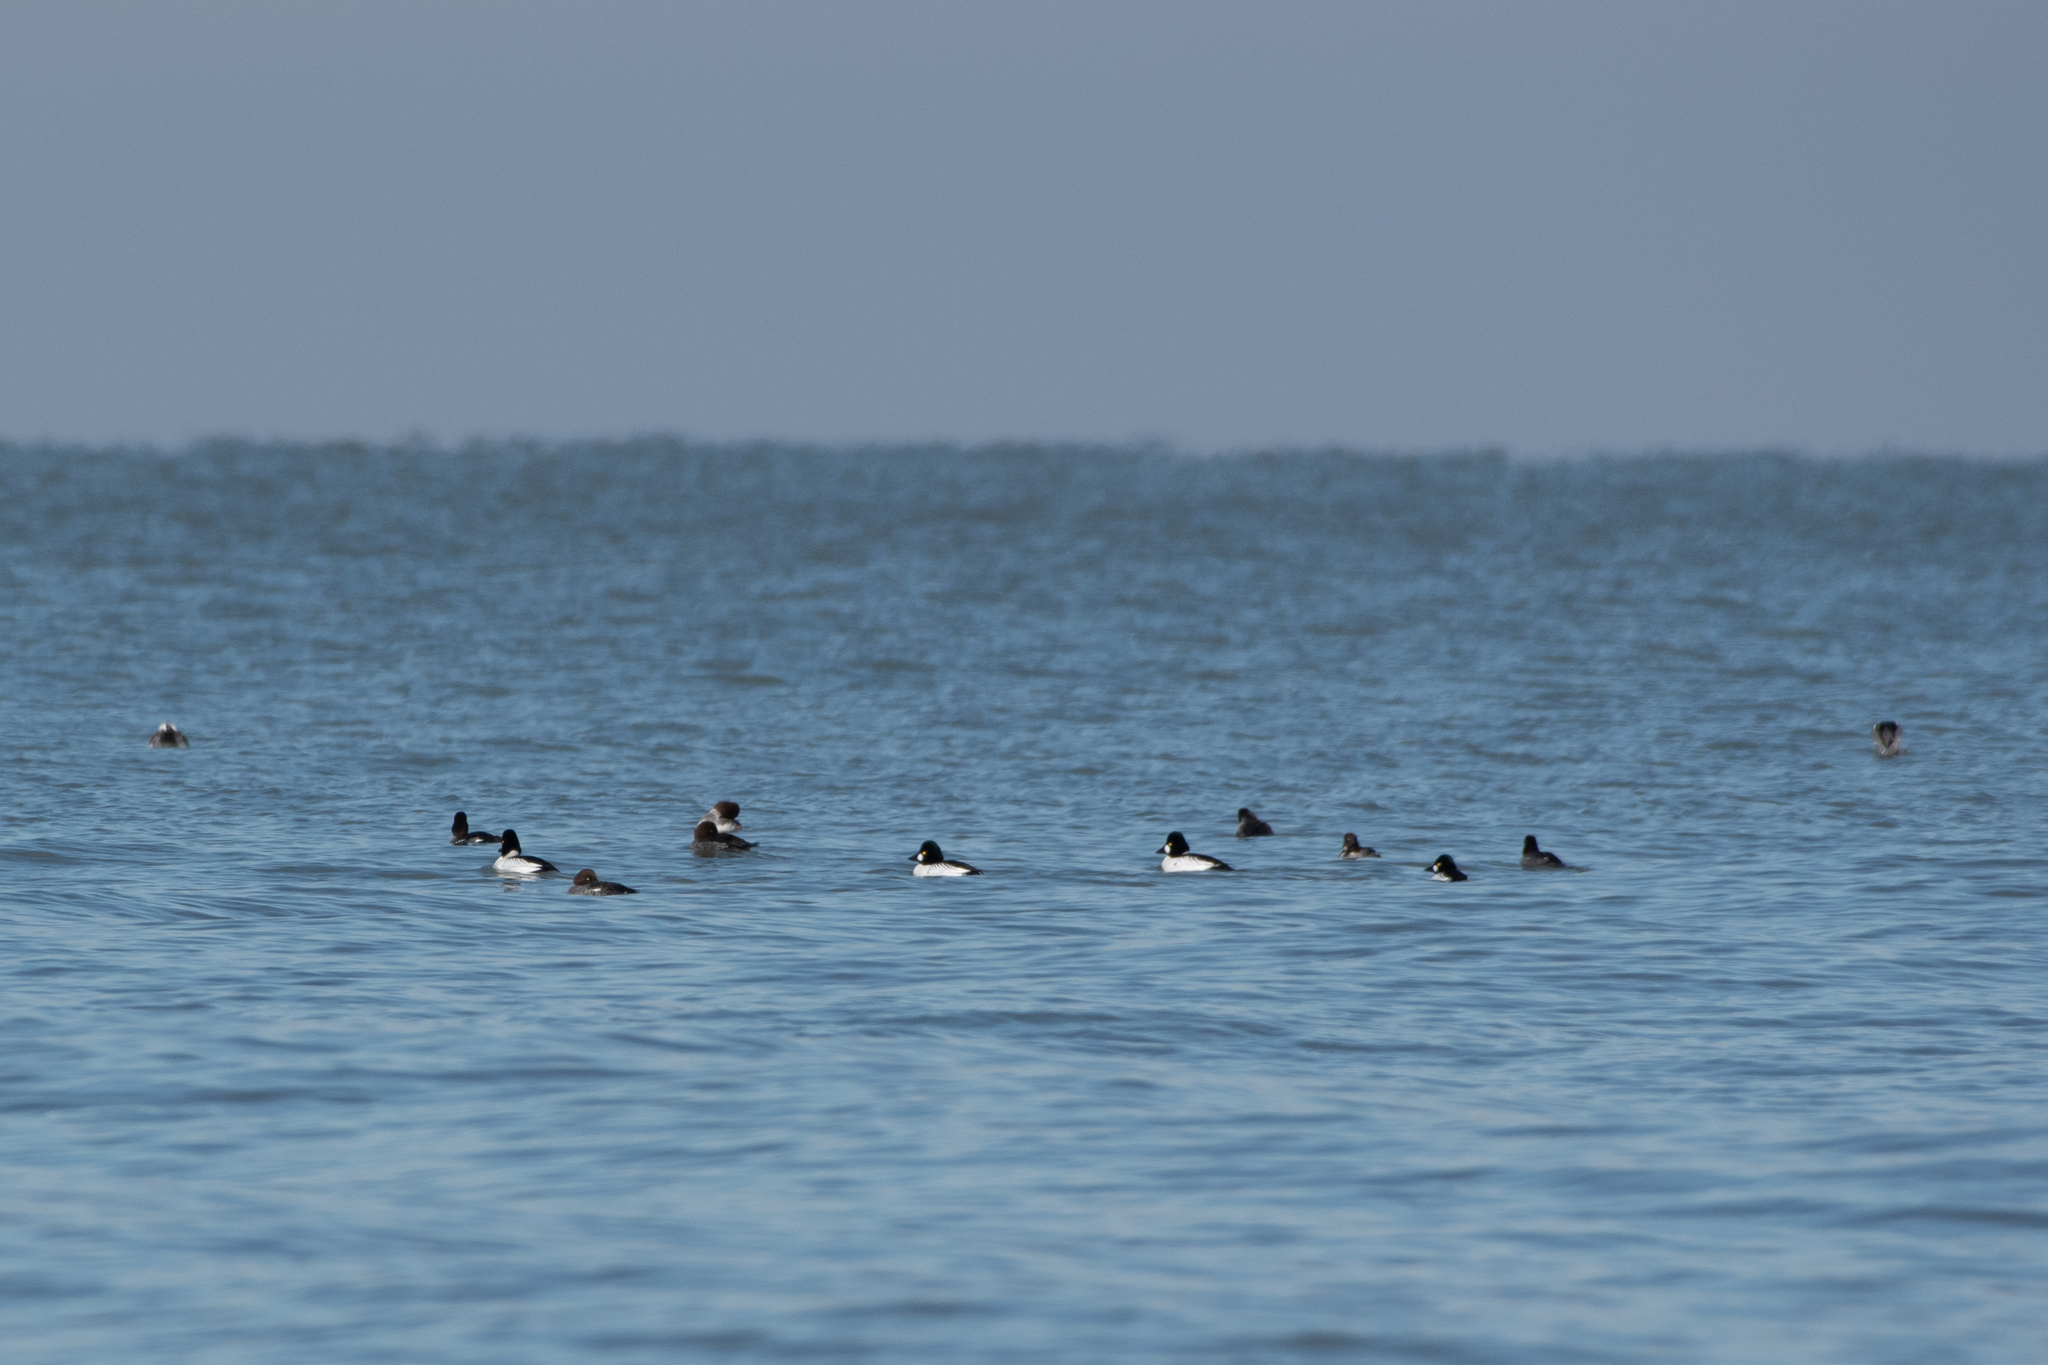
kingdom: Animalia
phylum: Chordata
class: Aves
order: Anseriformes
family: Anatidae
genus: Bucephala
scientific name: Bucephala clangula
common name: Common goldeneye
